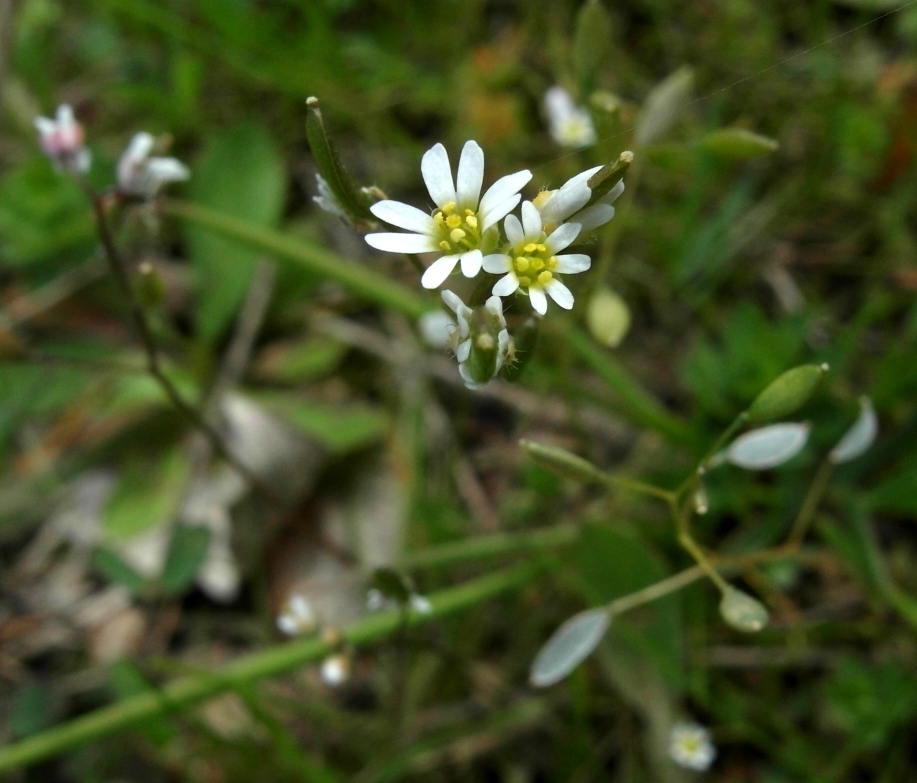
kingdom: Plantae
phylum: Tracheophyta
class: Magnoliopsida
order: Brassicales
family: Brassicaceae
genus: Draba
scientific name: Draba verna
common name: Spring draba
